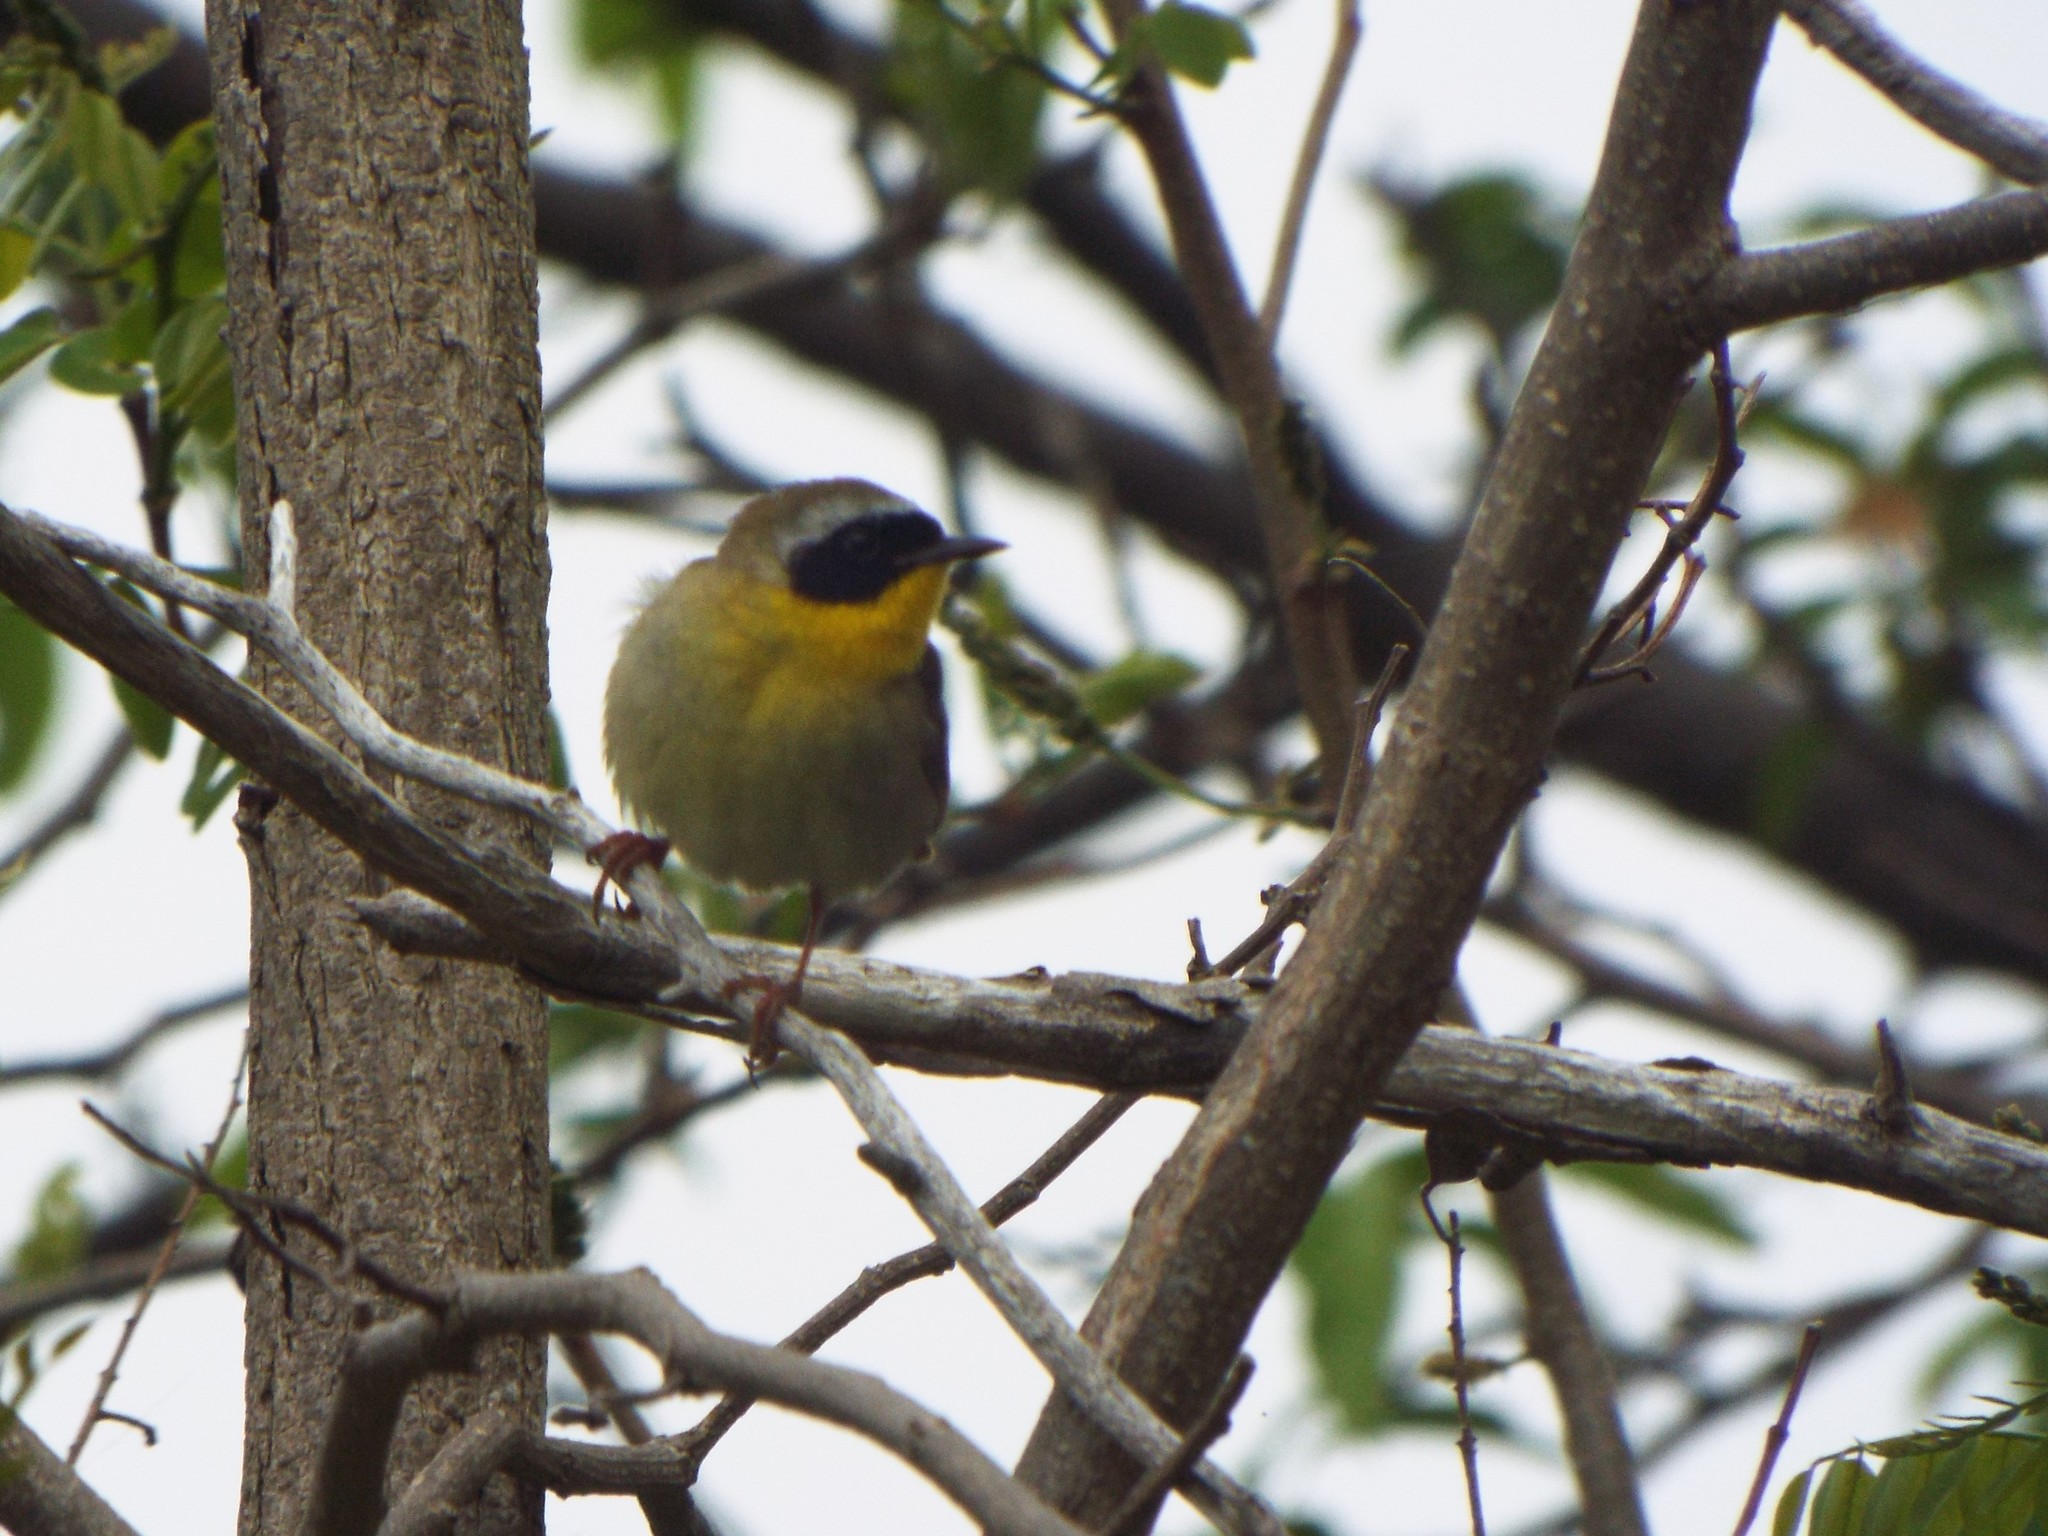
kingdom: Animalia
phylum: Chordata
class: Aves
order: Passeriformes
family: Parulidae
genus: Geothlypis
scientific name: Geothlypis trichas
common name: Common yellowthroat
